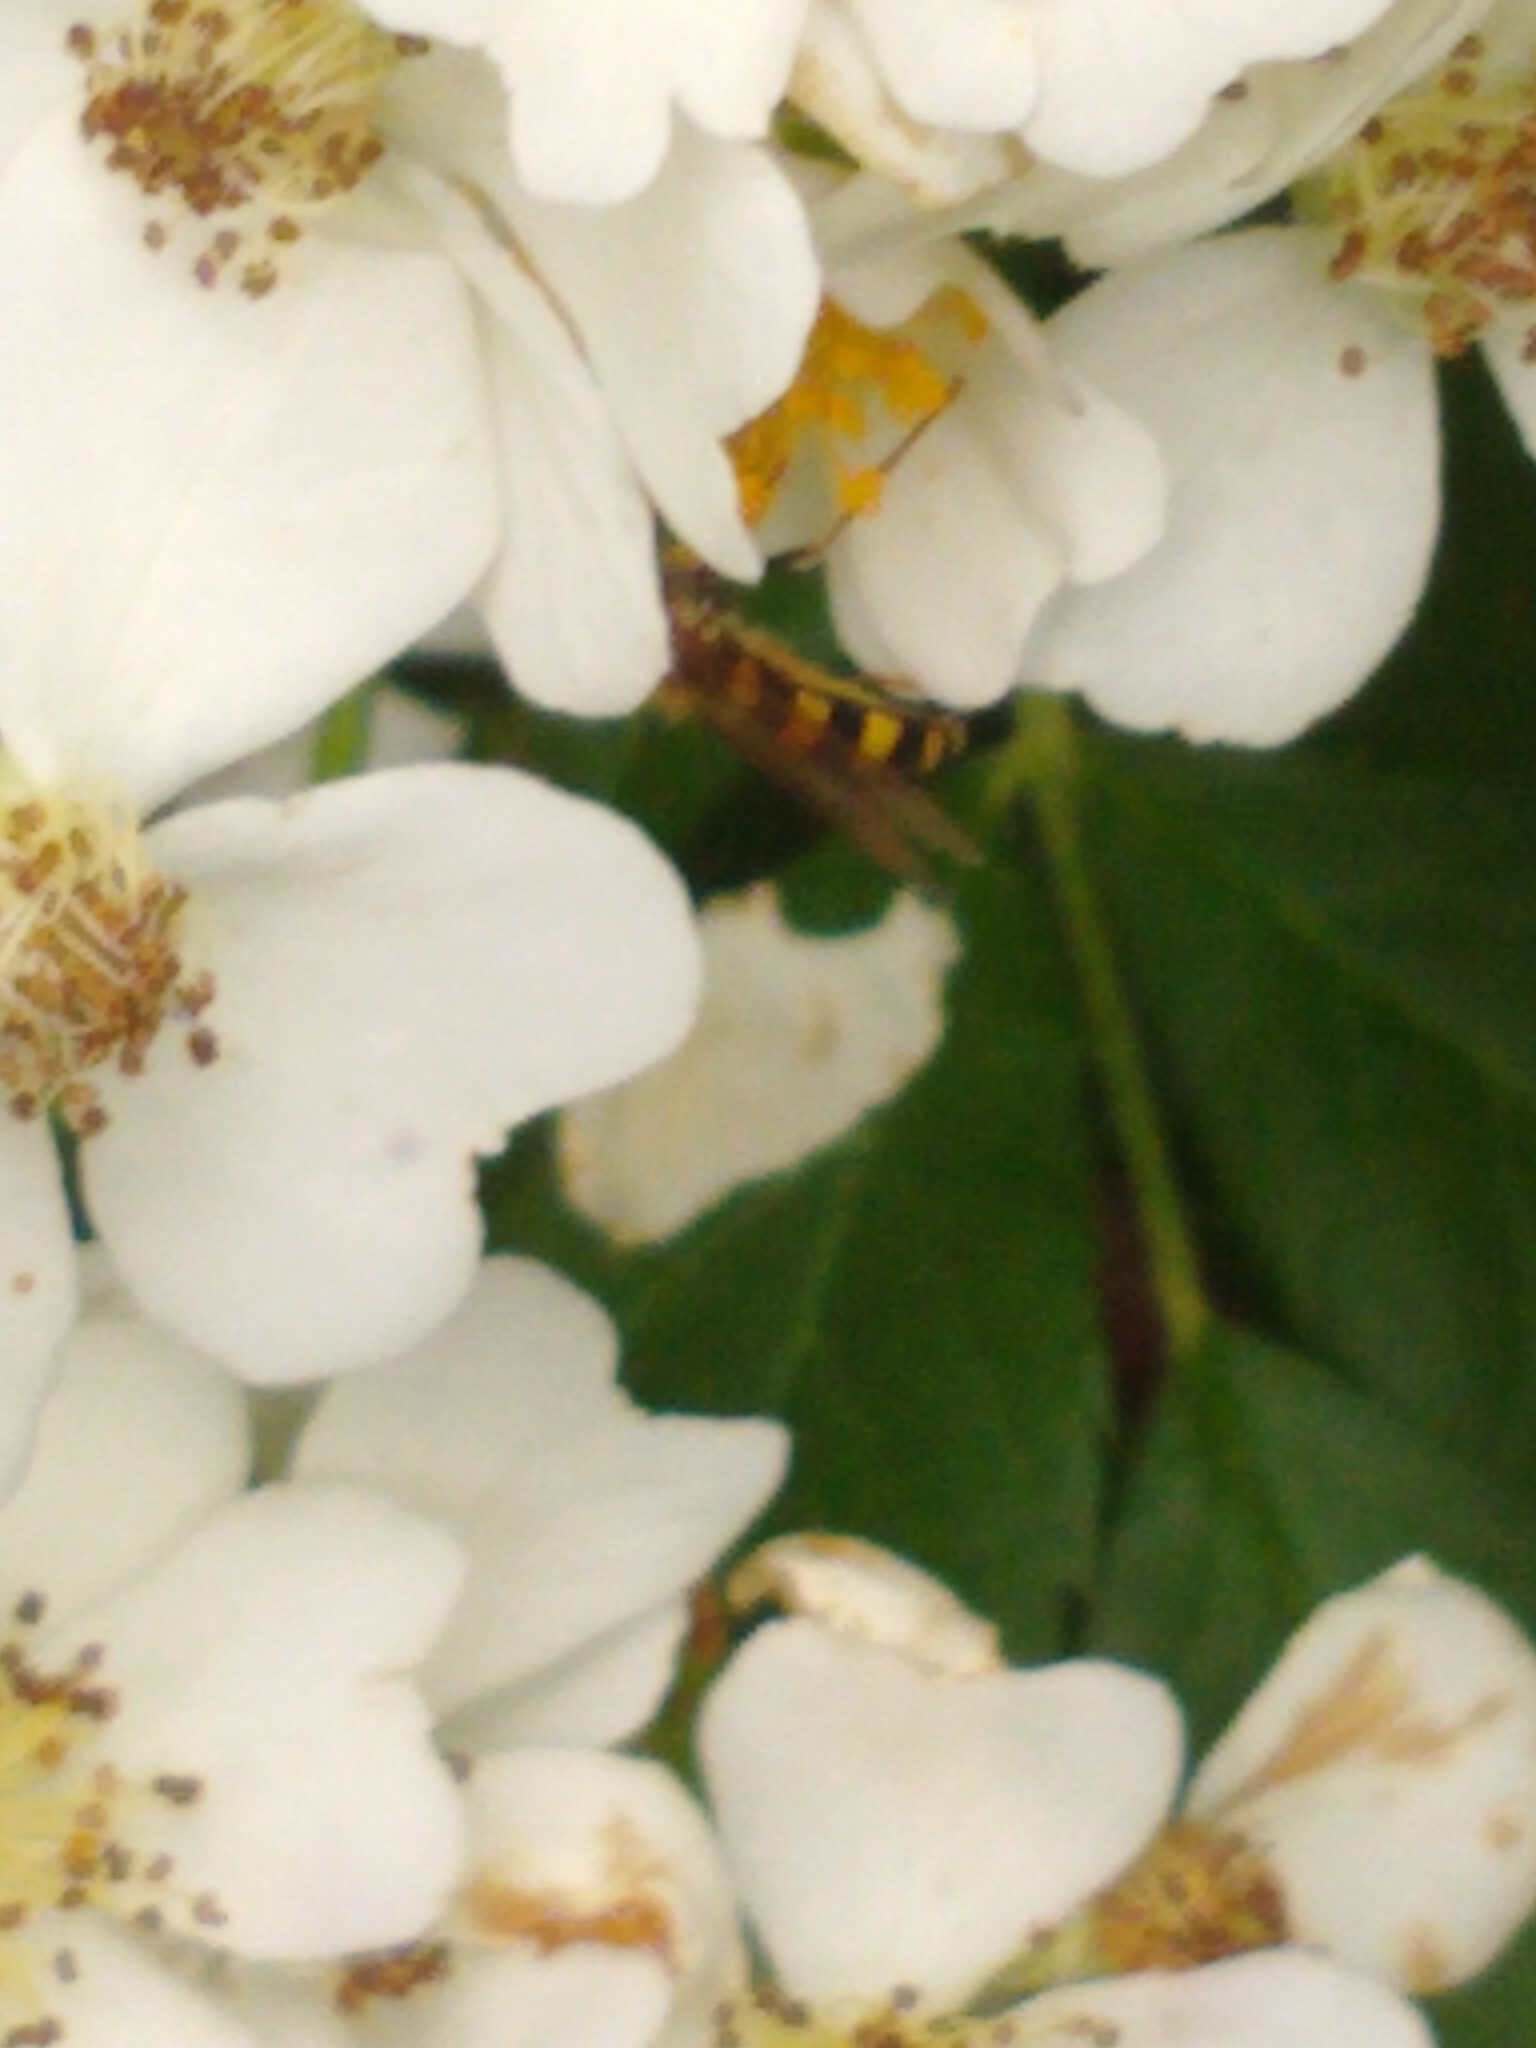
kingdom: Animalia
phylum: Arthropoda
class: Insecta
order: Diptera
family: Syrphidae
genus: Eupeodes
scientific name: Eupeodes
